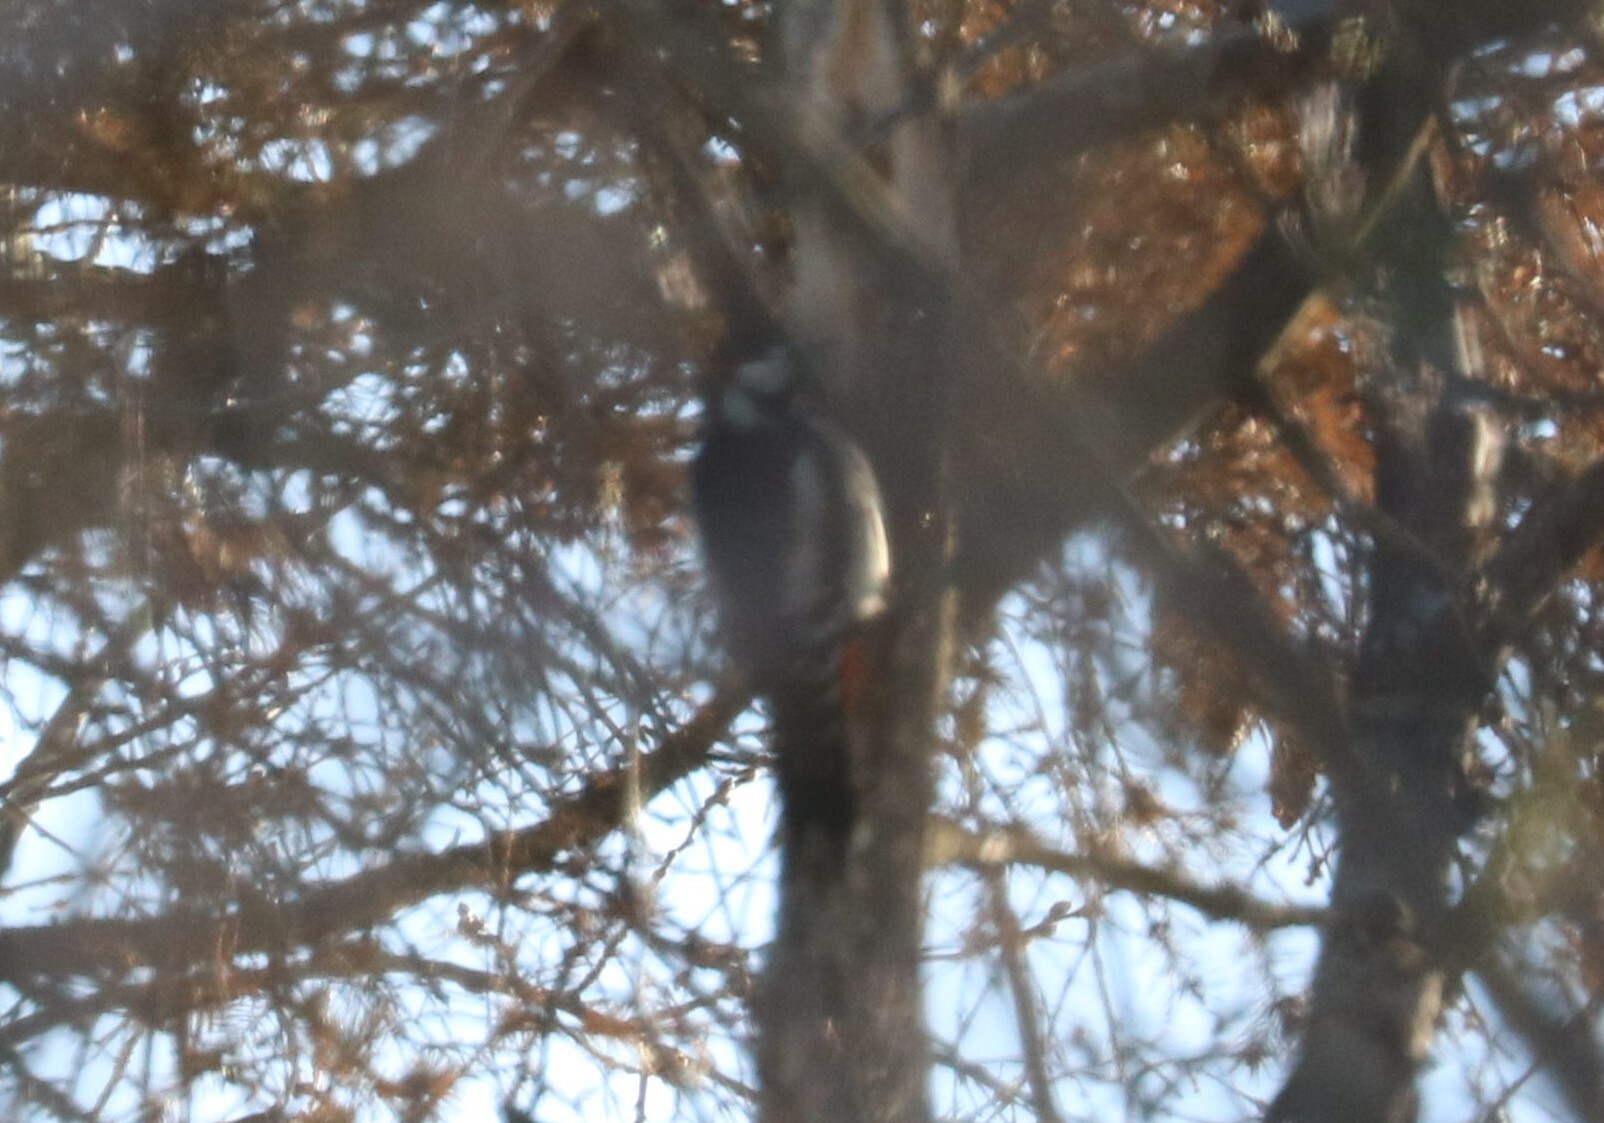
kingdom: Animalia
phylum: Chordata
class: Aves
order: Piciformes
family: Picidae
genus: Dendrocopos
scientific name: Dendrocopos major
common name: Great spotted woodpecker
